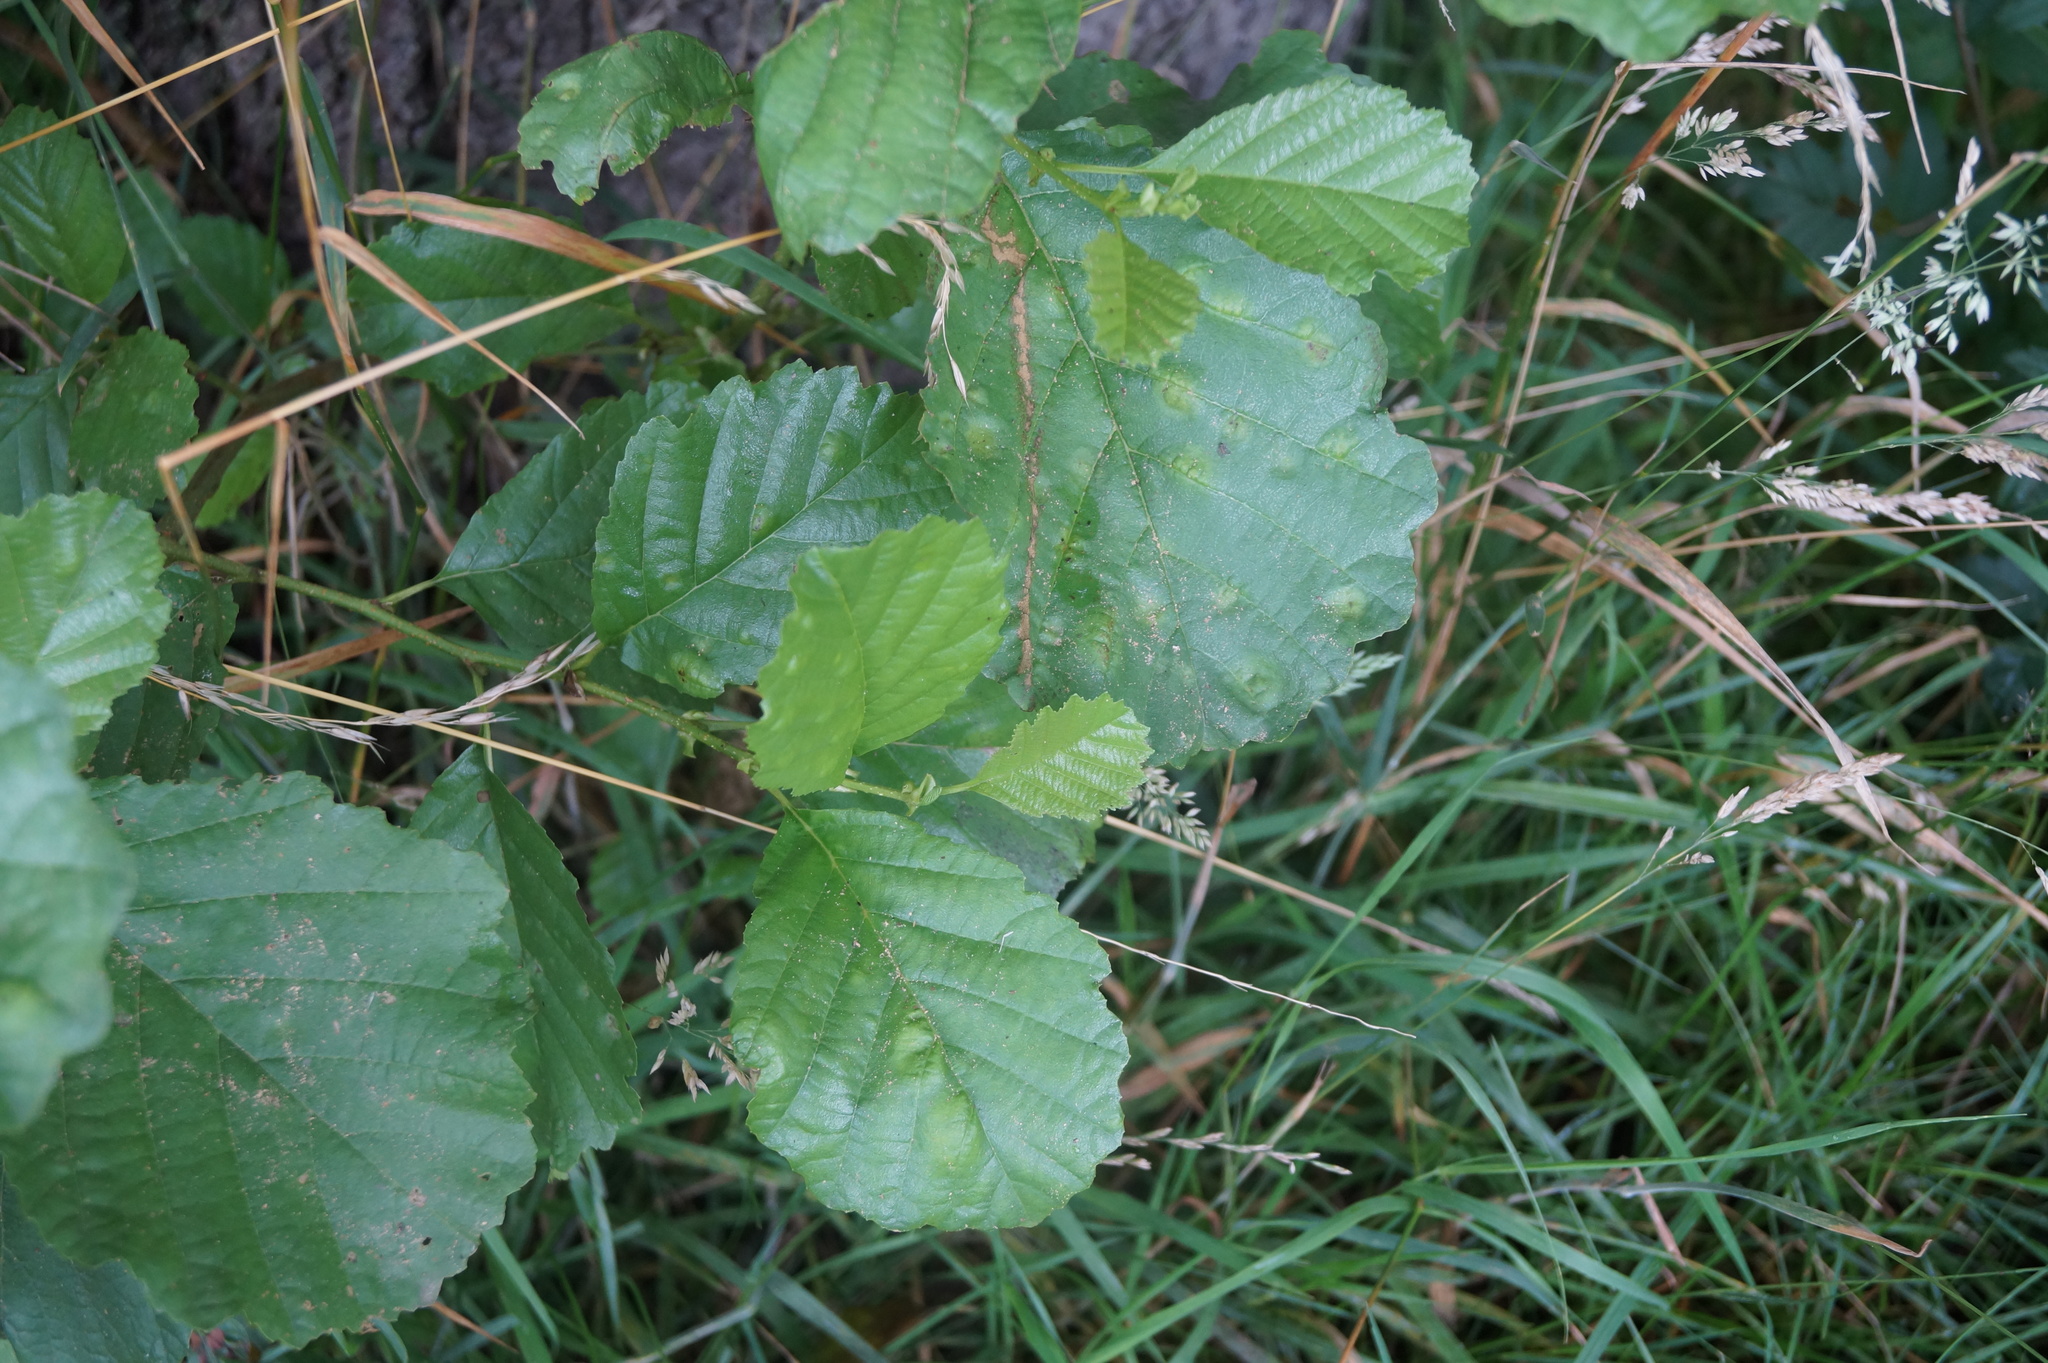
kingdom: Fungi
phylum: Ascomycota
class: Taphrinomycetes
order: Taphrinales
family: Taphrinaceae
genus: Taphrina
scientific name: Taphrina sadebeckii
